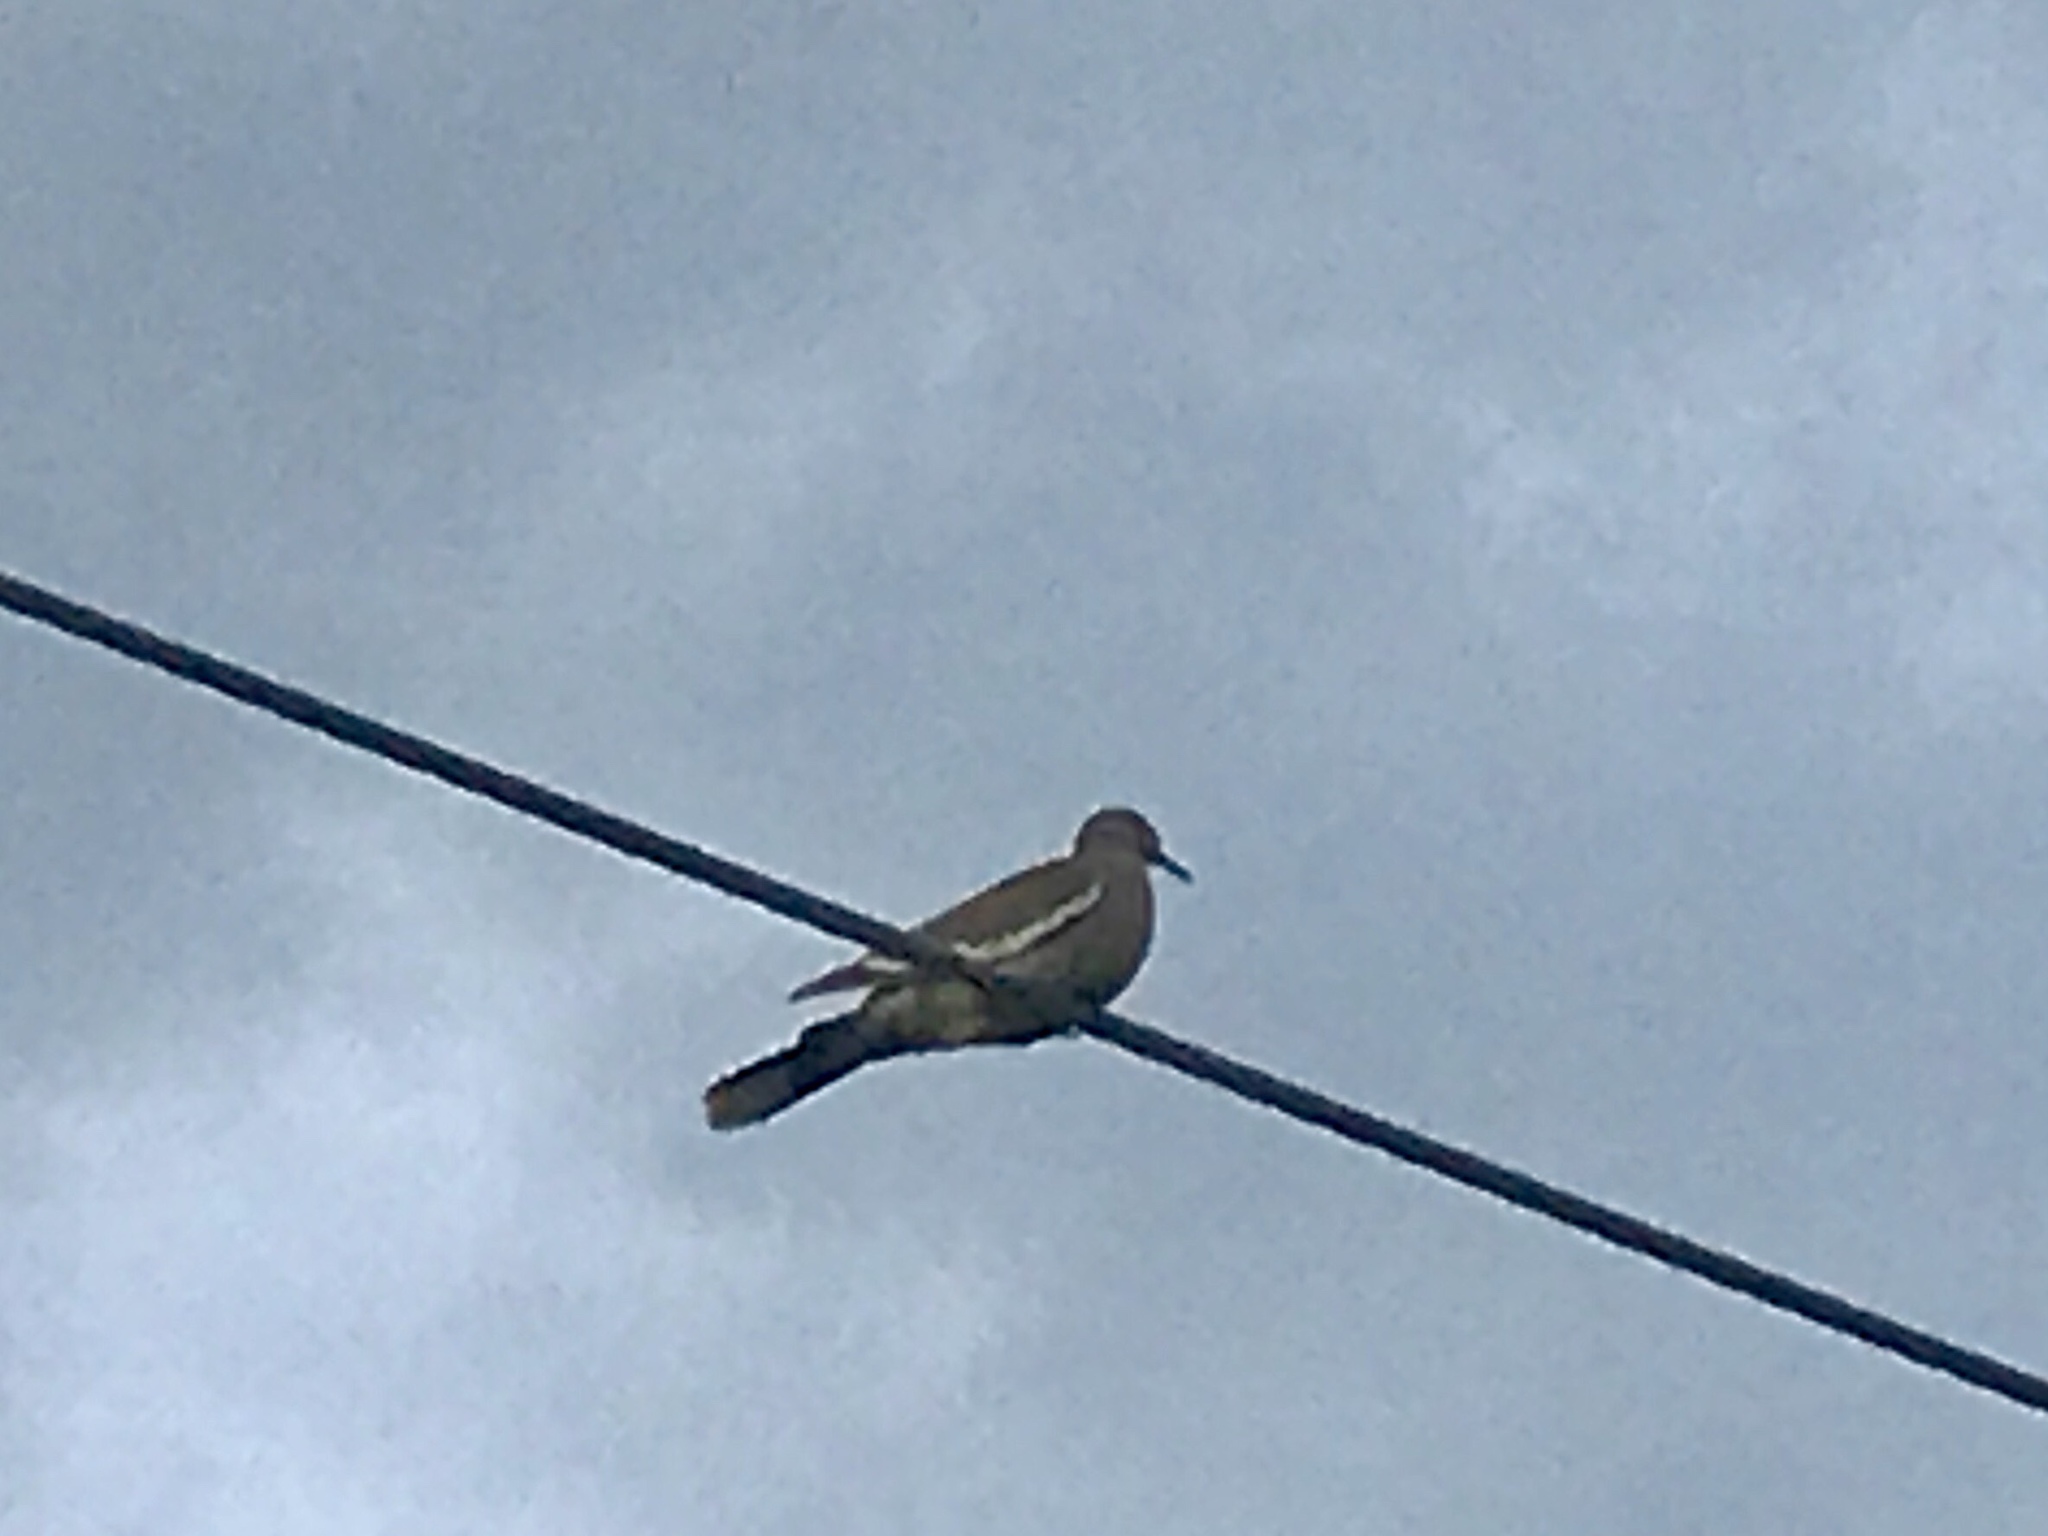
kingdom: Animalia
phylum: Chordata
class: Aves
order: Columbiformes
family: Columbidae
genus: Zenaida
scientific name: Zenaida asiatica
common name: White-winged dove
